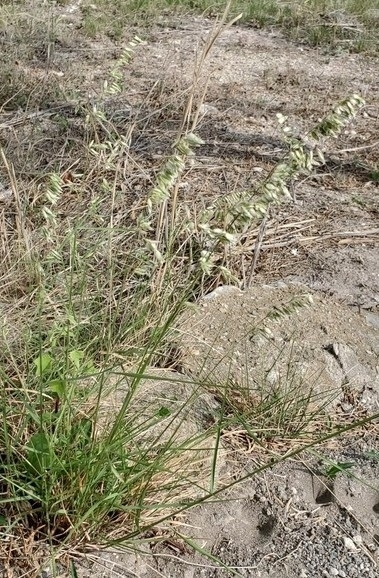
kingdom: Plantae
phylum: Tracheophyta
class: Liliopsida
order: Poales
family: Poaceae
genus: Melica
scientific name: Melica nitens
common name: Three-flower melic
